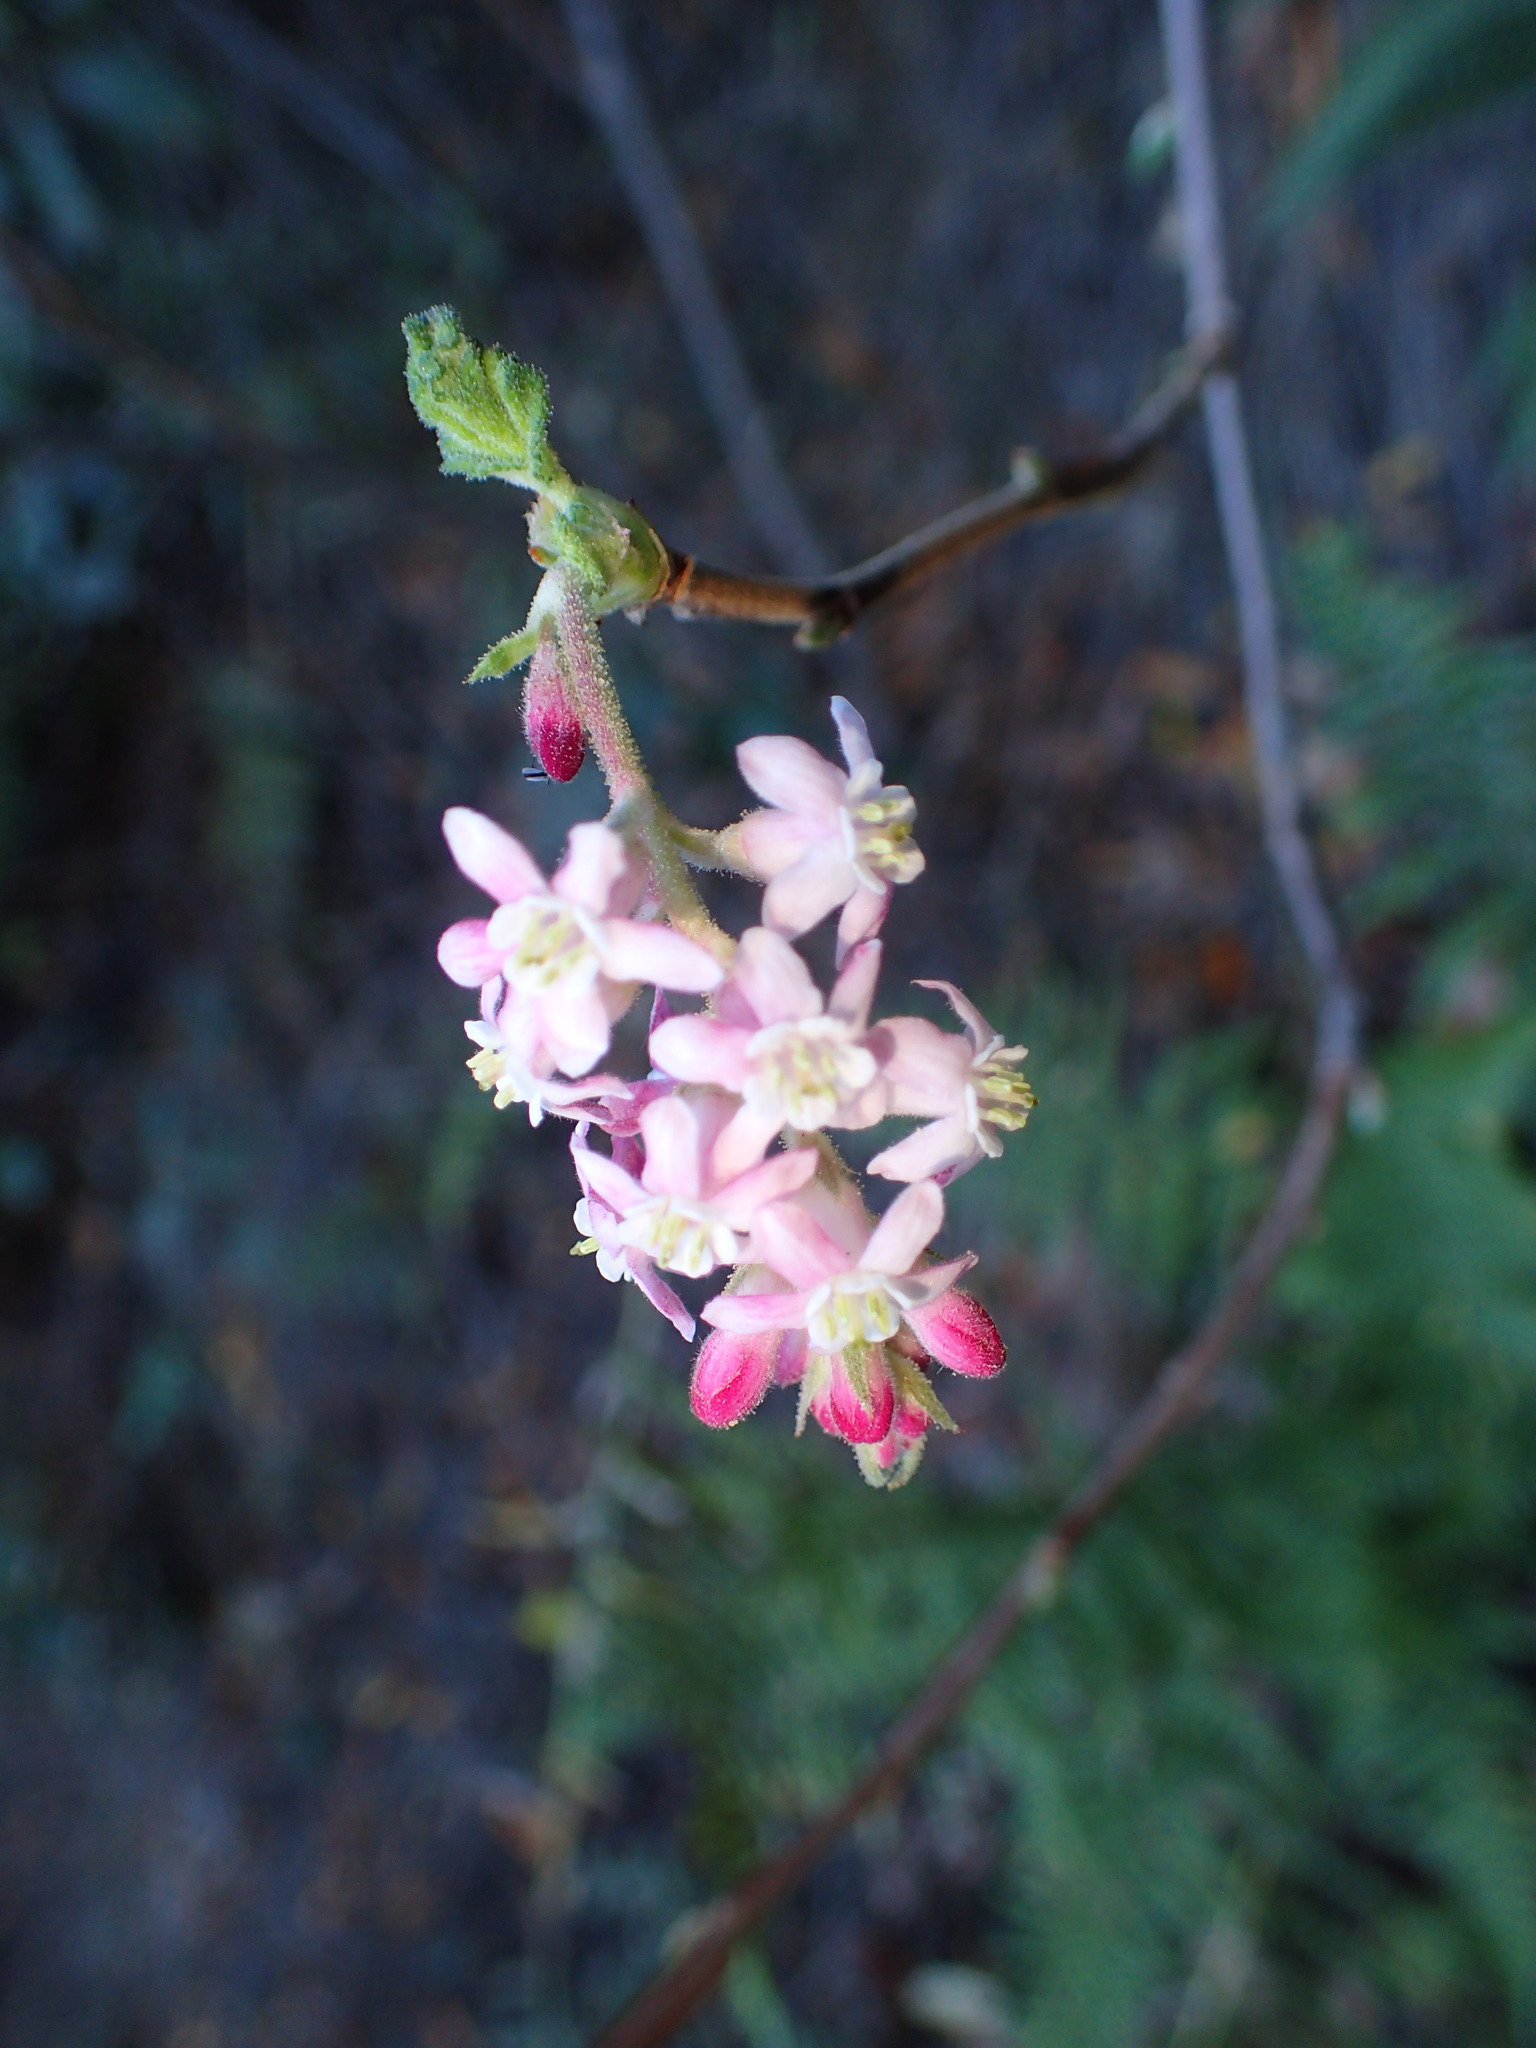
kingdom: Plantae
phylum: Tracheophyta
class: Magnoliopsida
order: Saxifragales
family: Grossulariaceae
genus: Ribes
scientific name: Ribes malvaceum
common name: Chaparral currant
